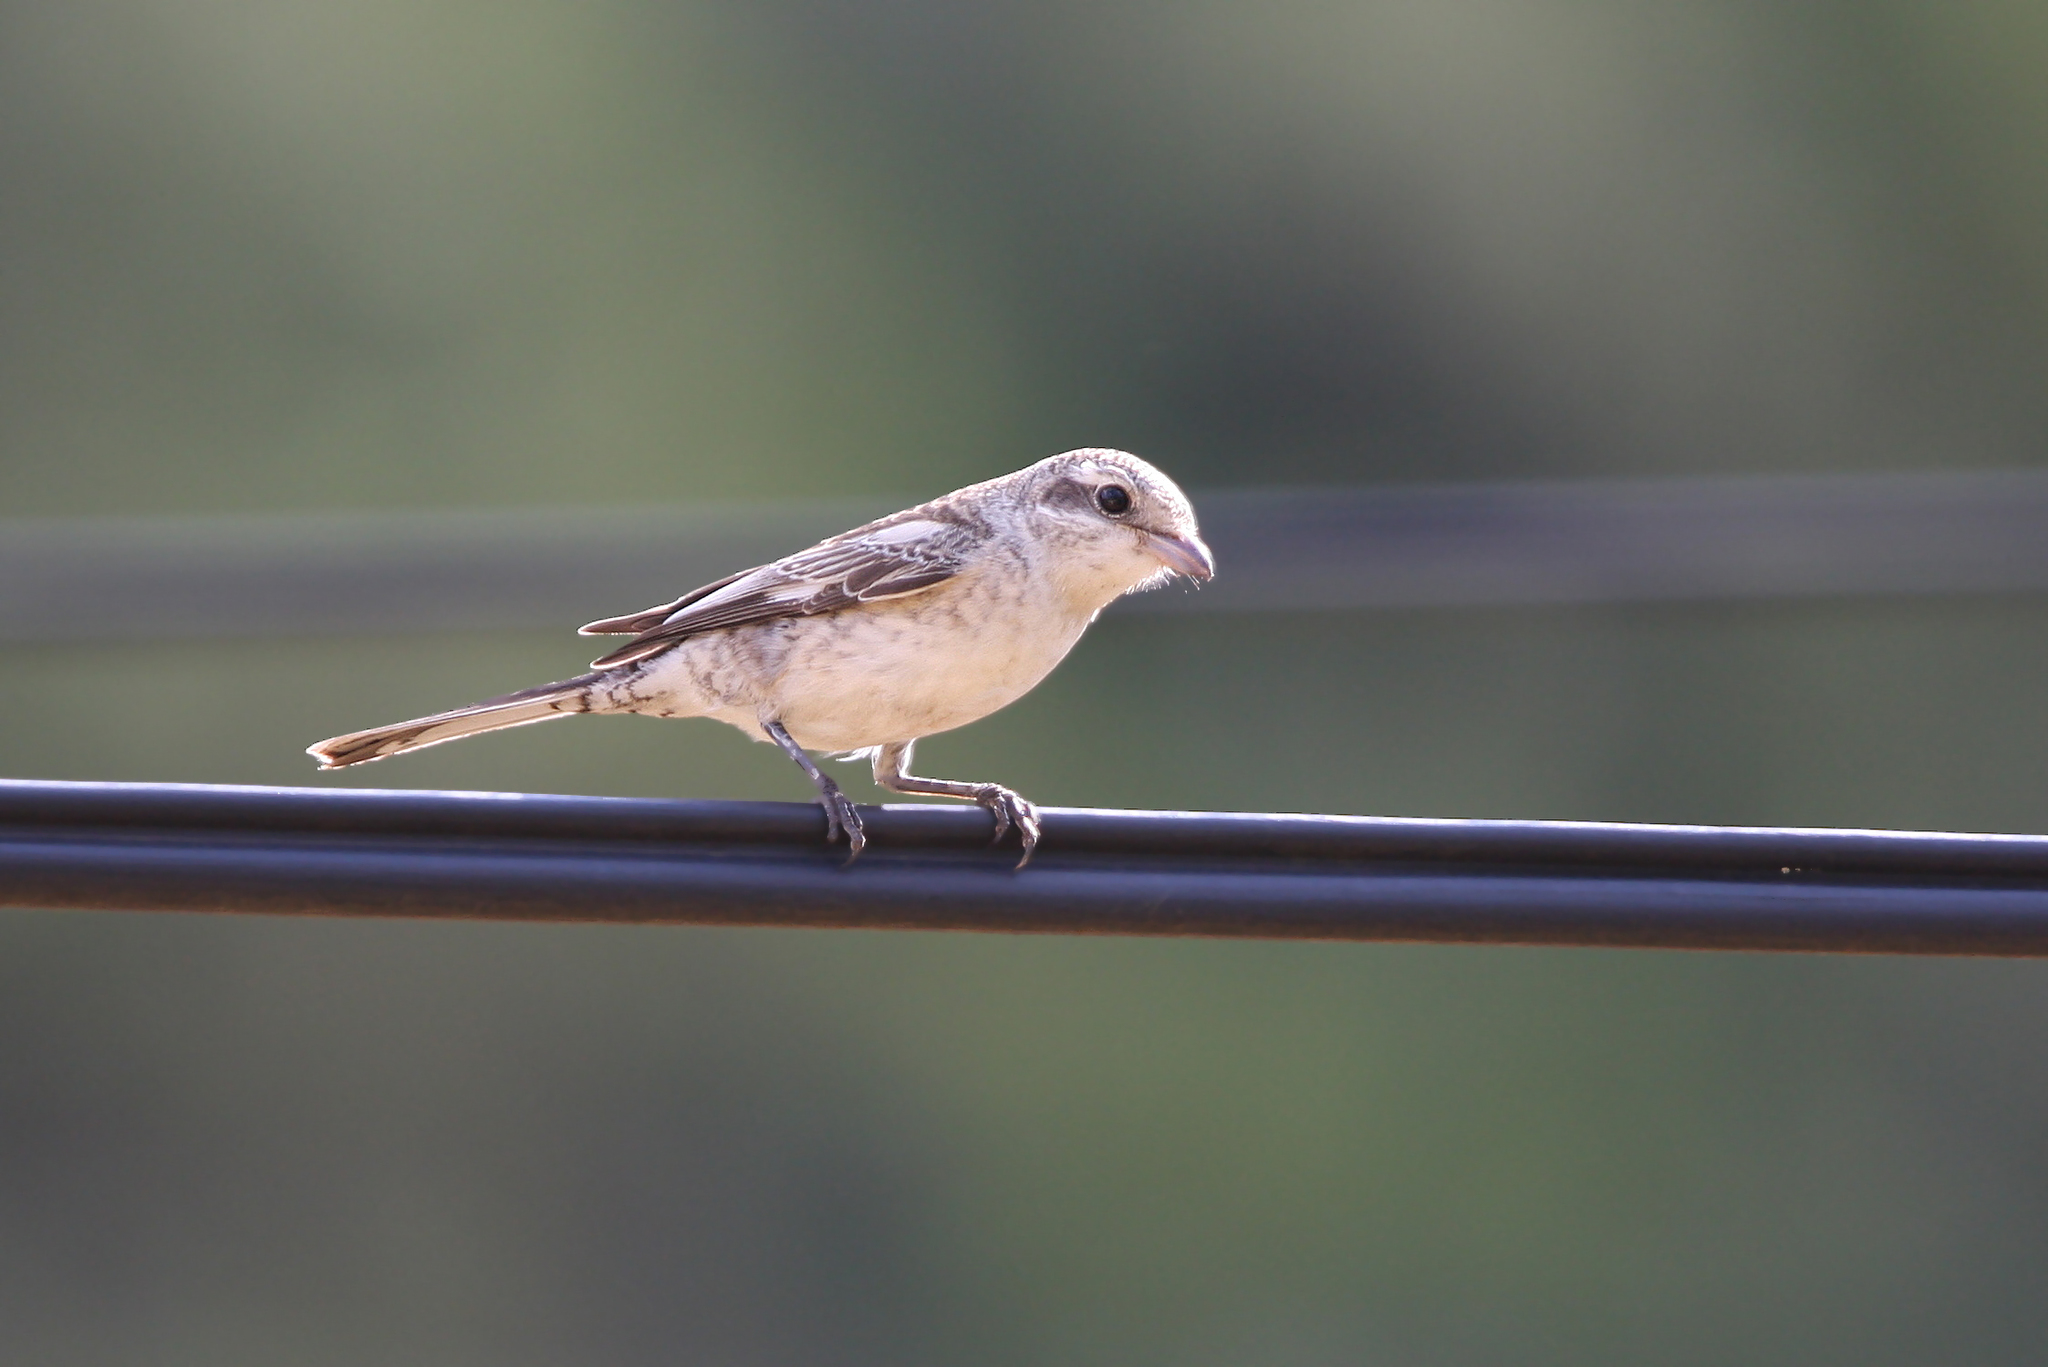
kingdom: Animalia
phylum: Chordata
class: Aves
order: Passeriformes
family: Laniidae
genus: Lanius
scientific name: Lanius nubicus
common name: Masked shrike
